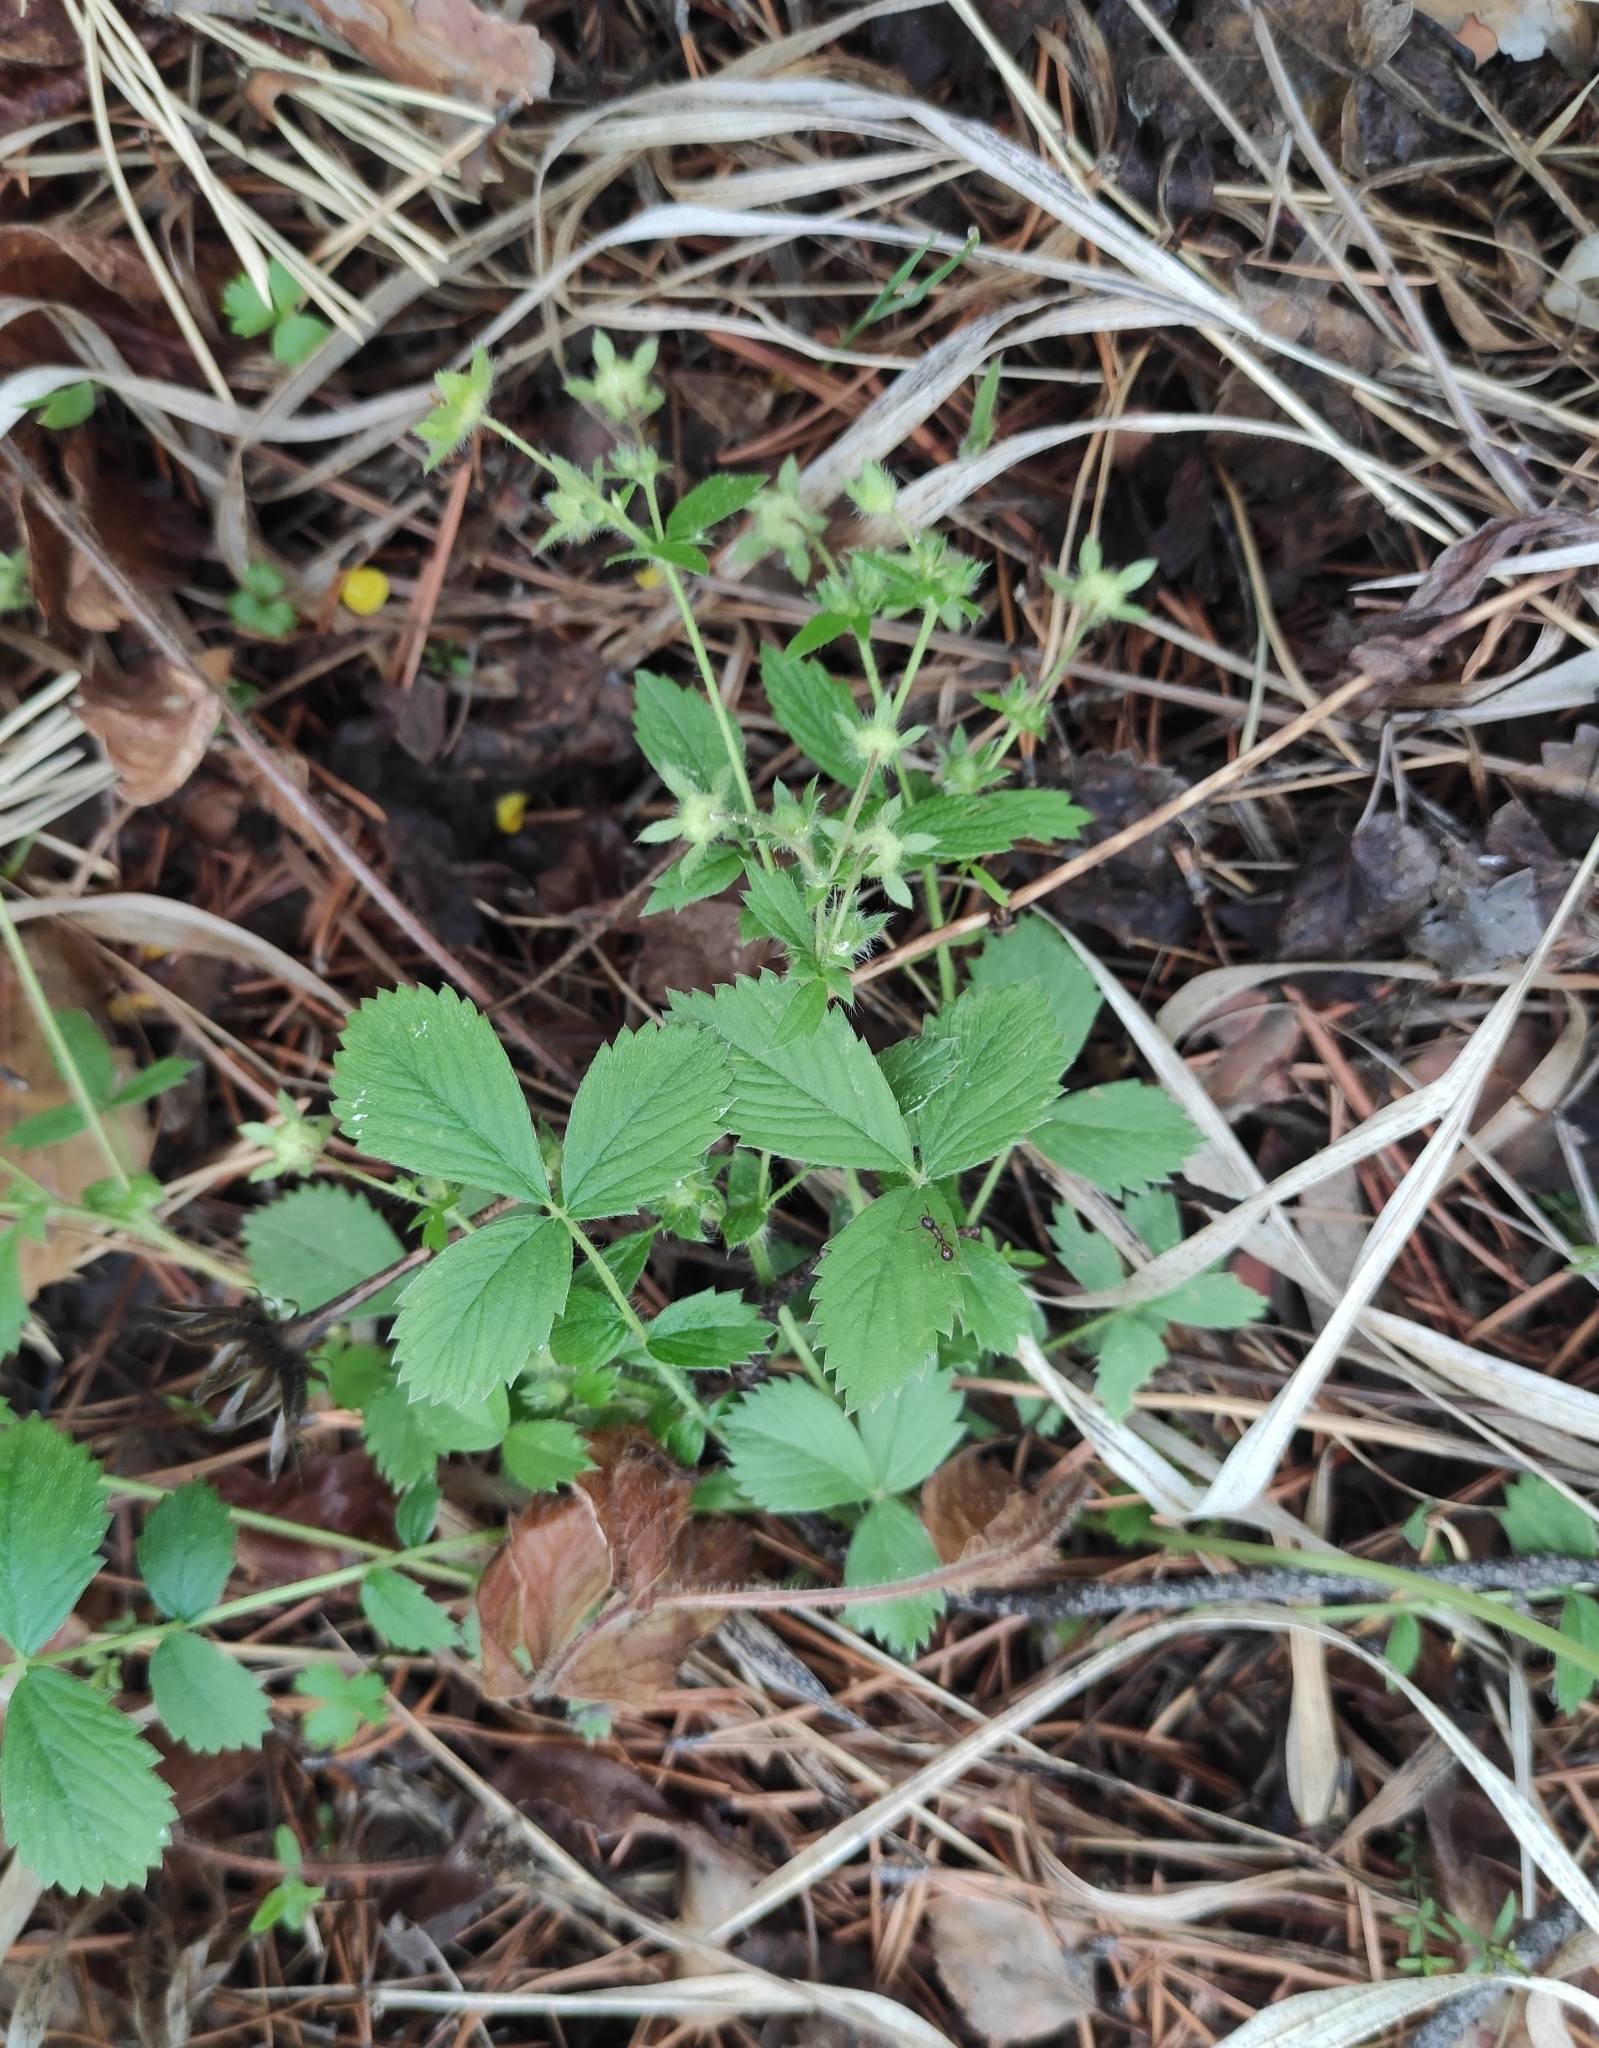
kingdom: Plantae
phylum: Tracheophyta
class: Magnoliopsida
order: Rosales
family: Rosaceae
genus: Potentilla
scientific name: Potentilla fragarioides
